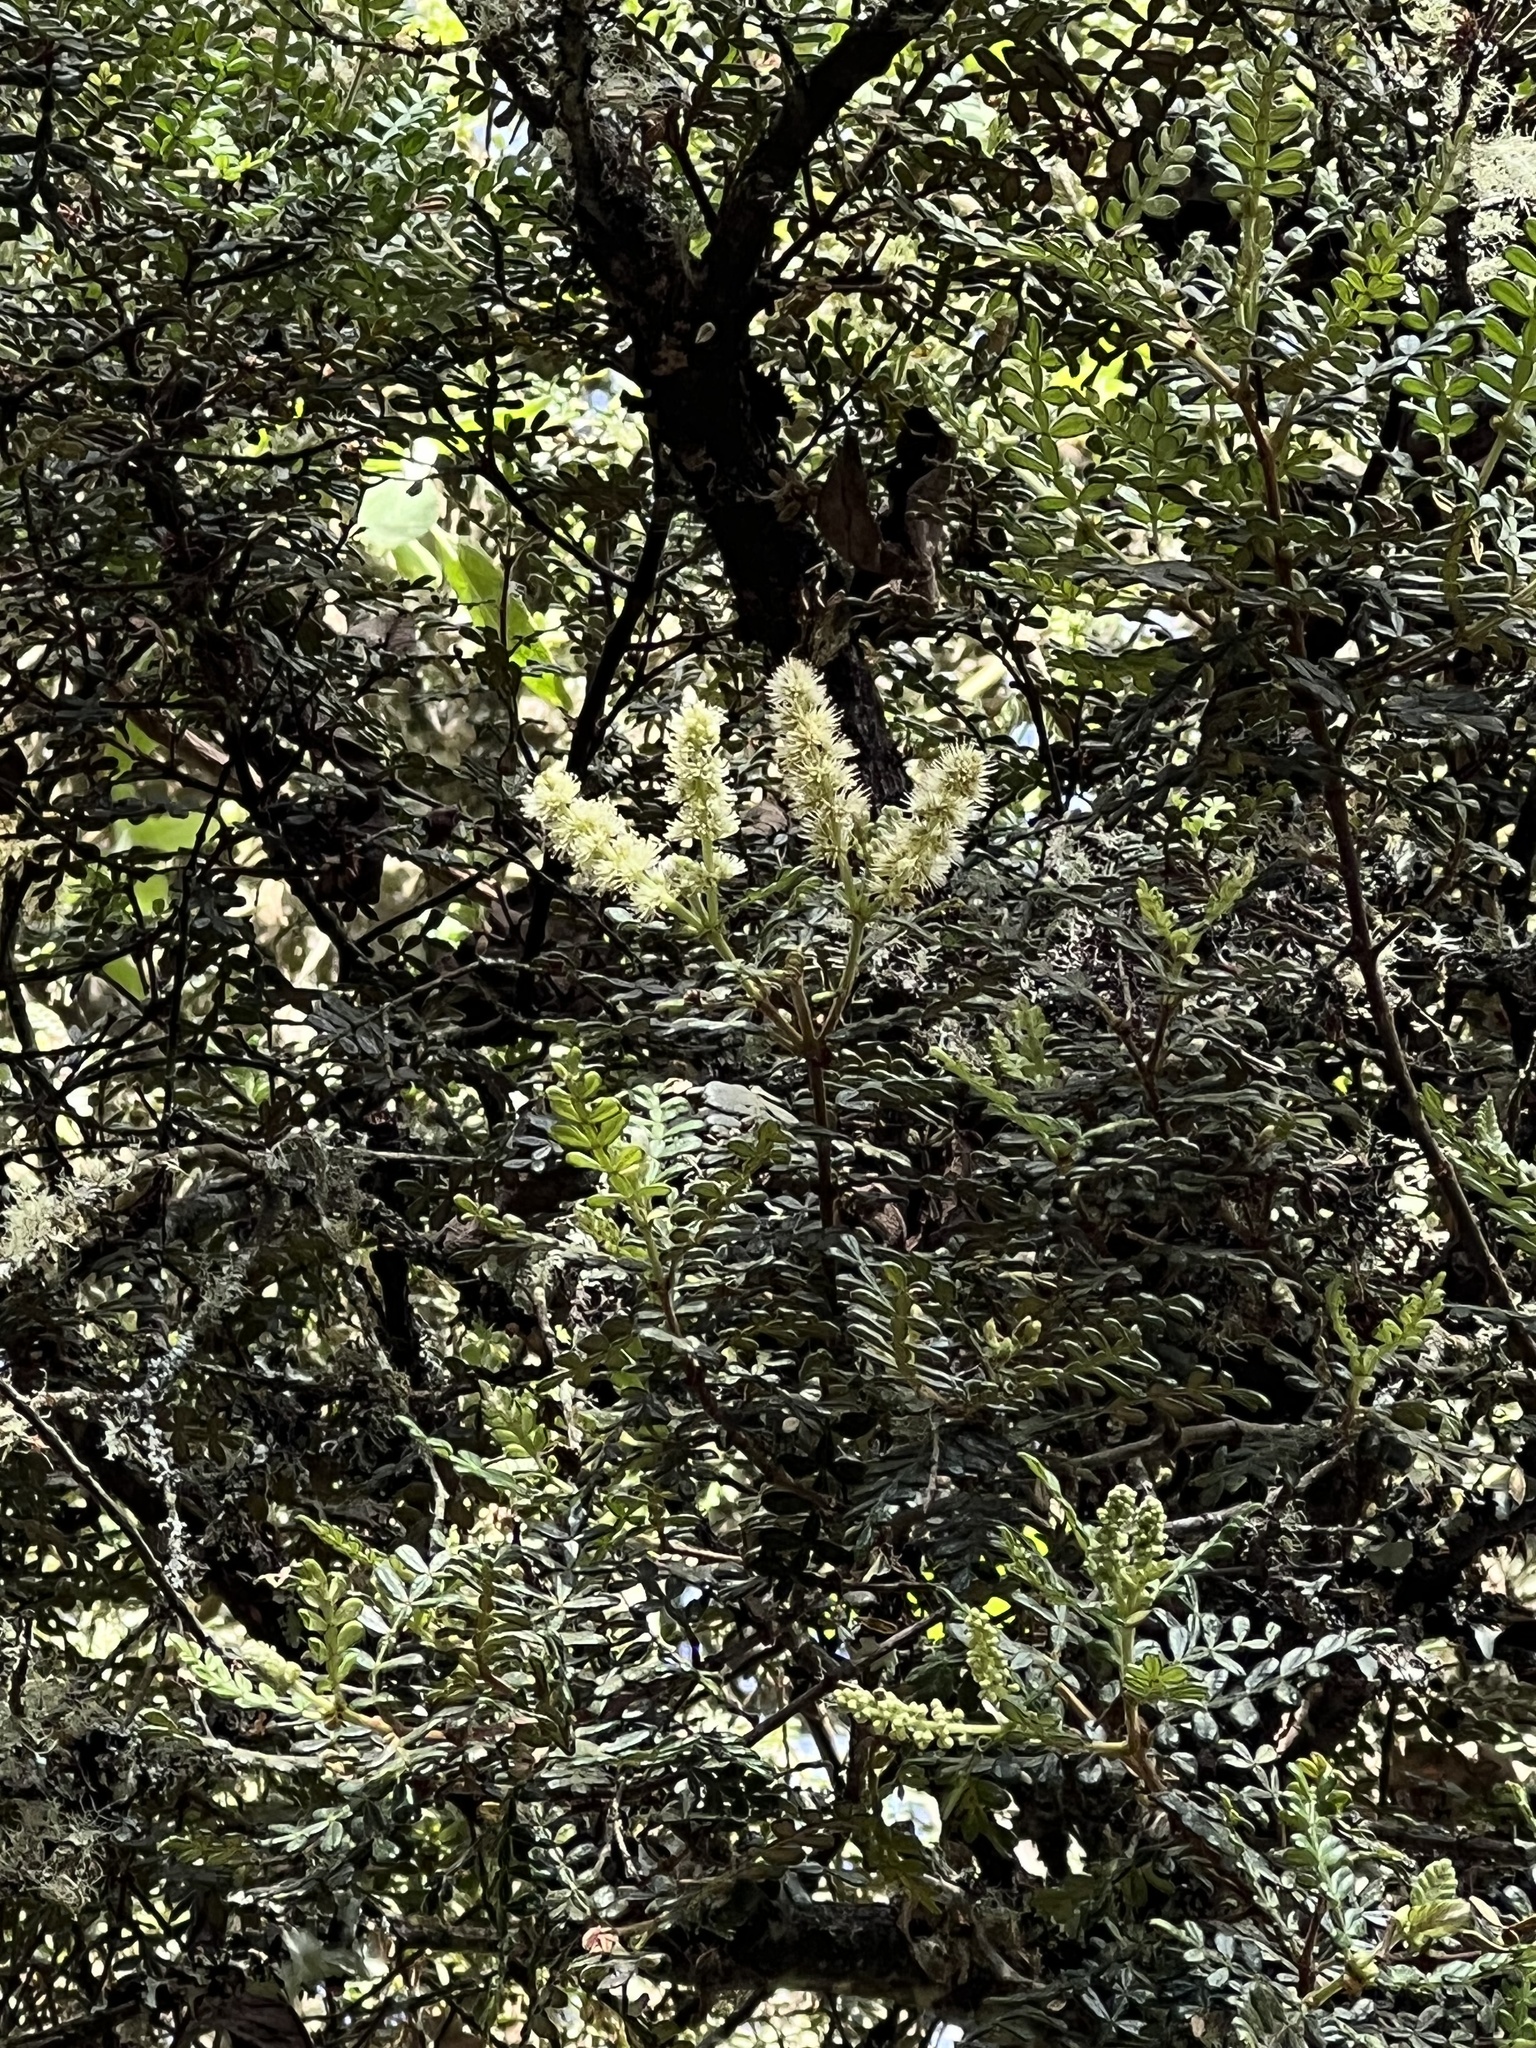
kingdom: Plantae
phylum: Tracheophyta
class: Magnoliopsida
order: Oxalidales
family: Cunoniaceae
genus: Weinmannia
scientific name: Weinmannia tomentosa
